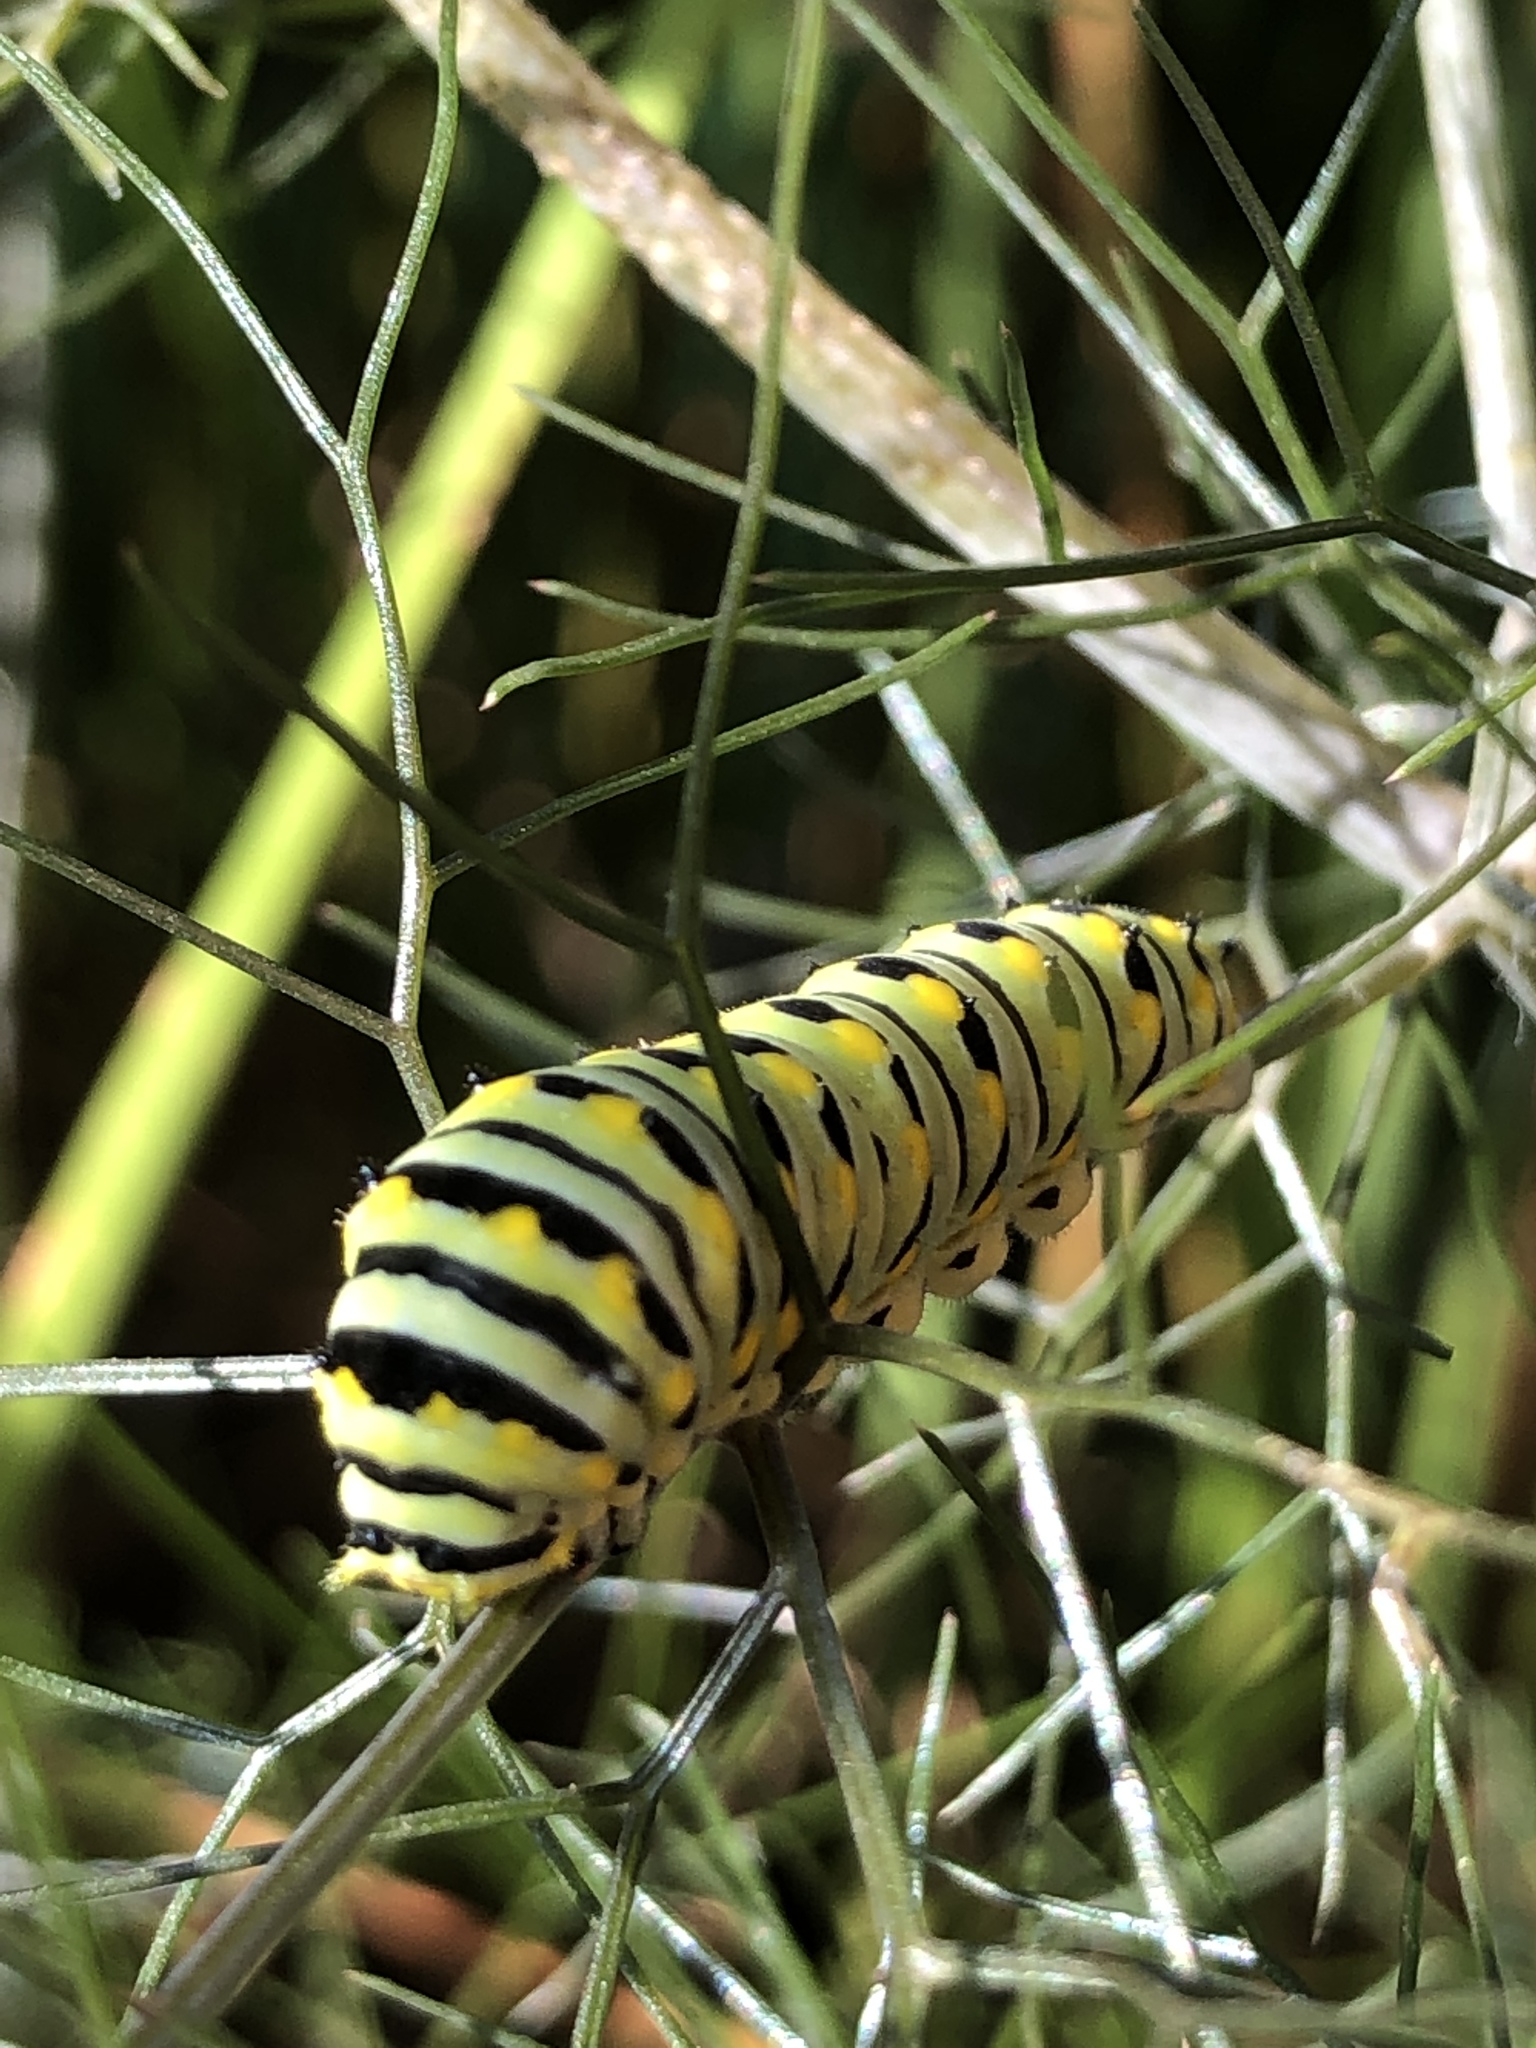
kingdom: Animalia
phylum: Arthropoda
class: Insecta
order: Lepidoptera
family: Papilionidae
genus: Papilio
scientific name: Papilio polyxenes
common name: Black swallowtail
